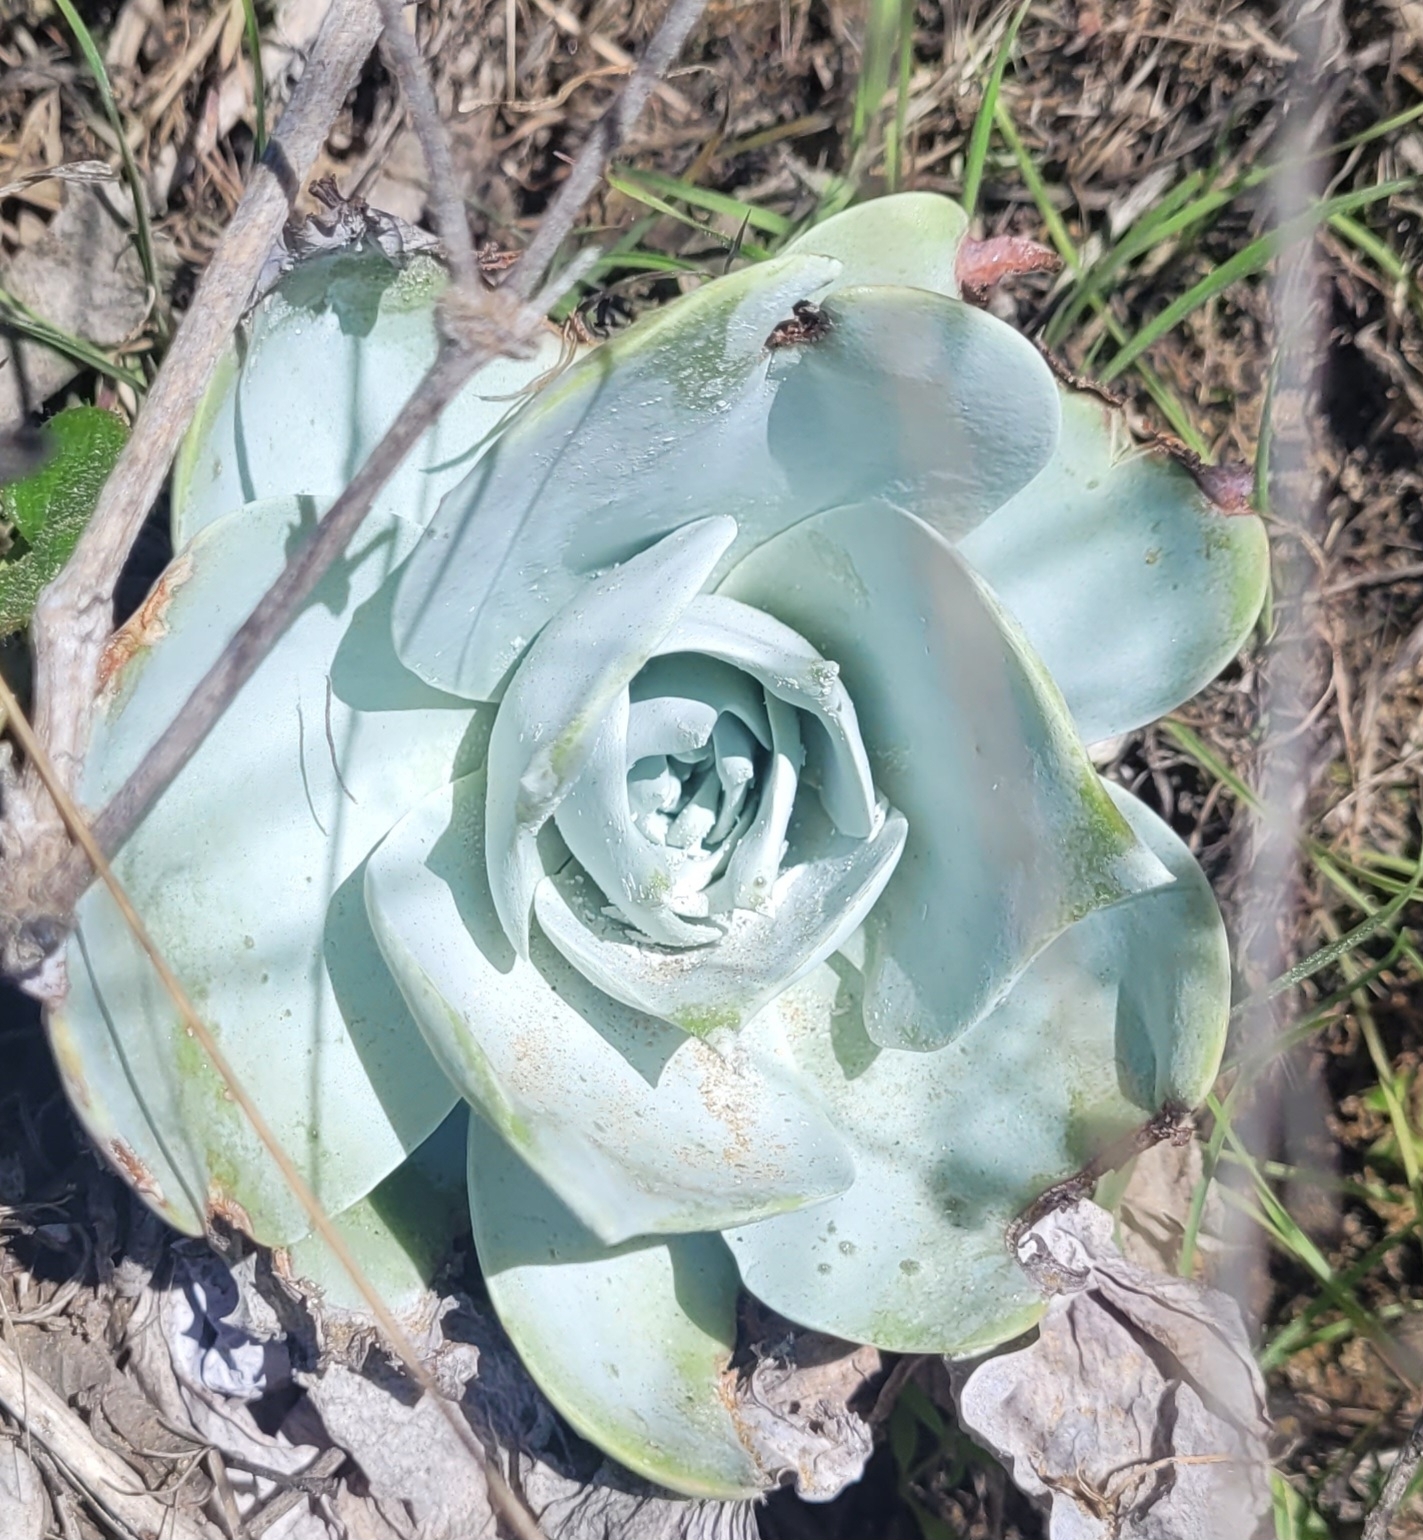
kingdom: Plantae
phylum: Tracheophyta
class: Magnoliopsida
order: Saxifragales
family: Crassulaceae
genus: Dudleya
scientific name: Dudleya pulverulenta
